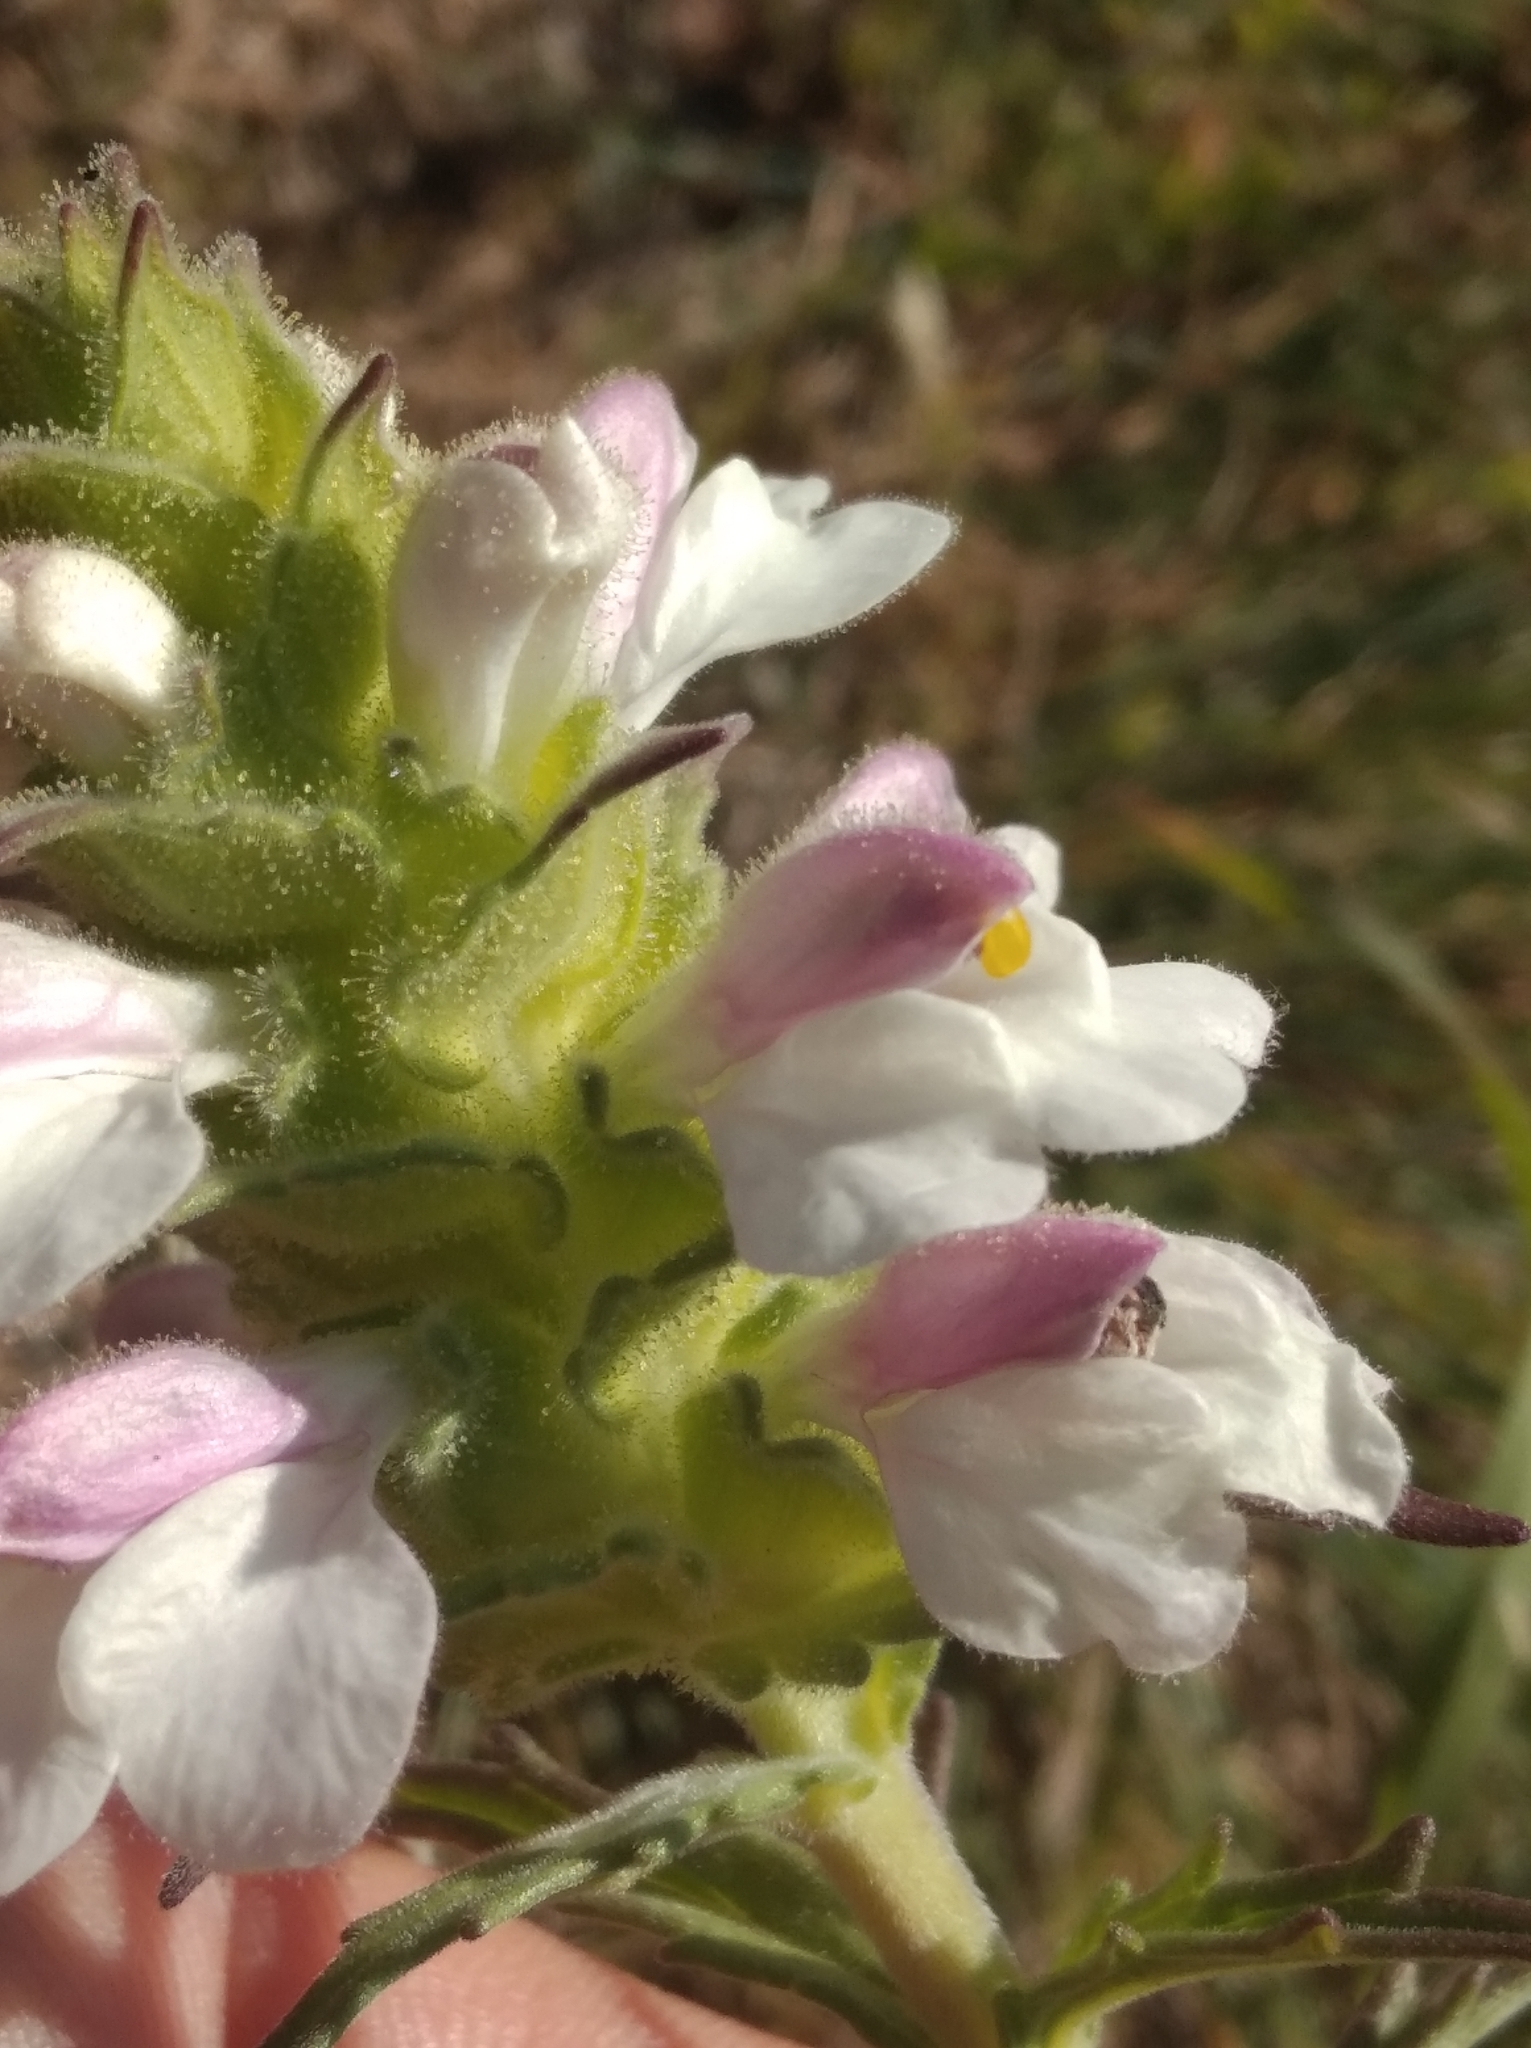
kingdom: Plantae
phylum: Tracheophyta
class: Magnoliopsida
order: Lamiales
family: Orobanchaceae
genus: Bellardia
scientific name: Bellardia trixago
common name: Mediterranean lineseed
